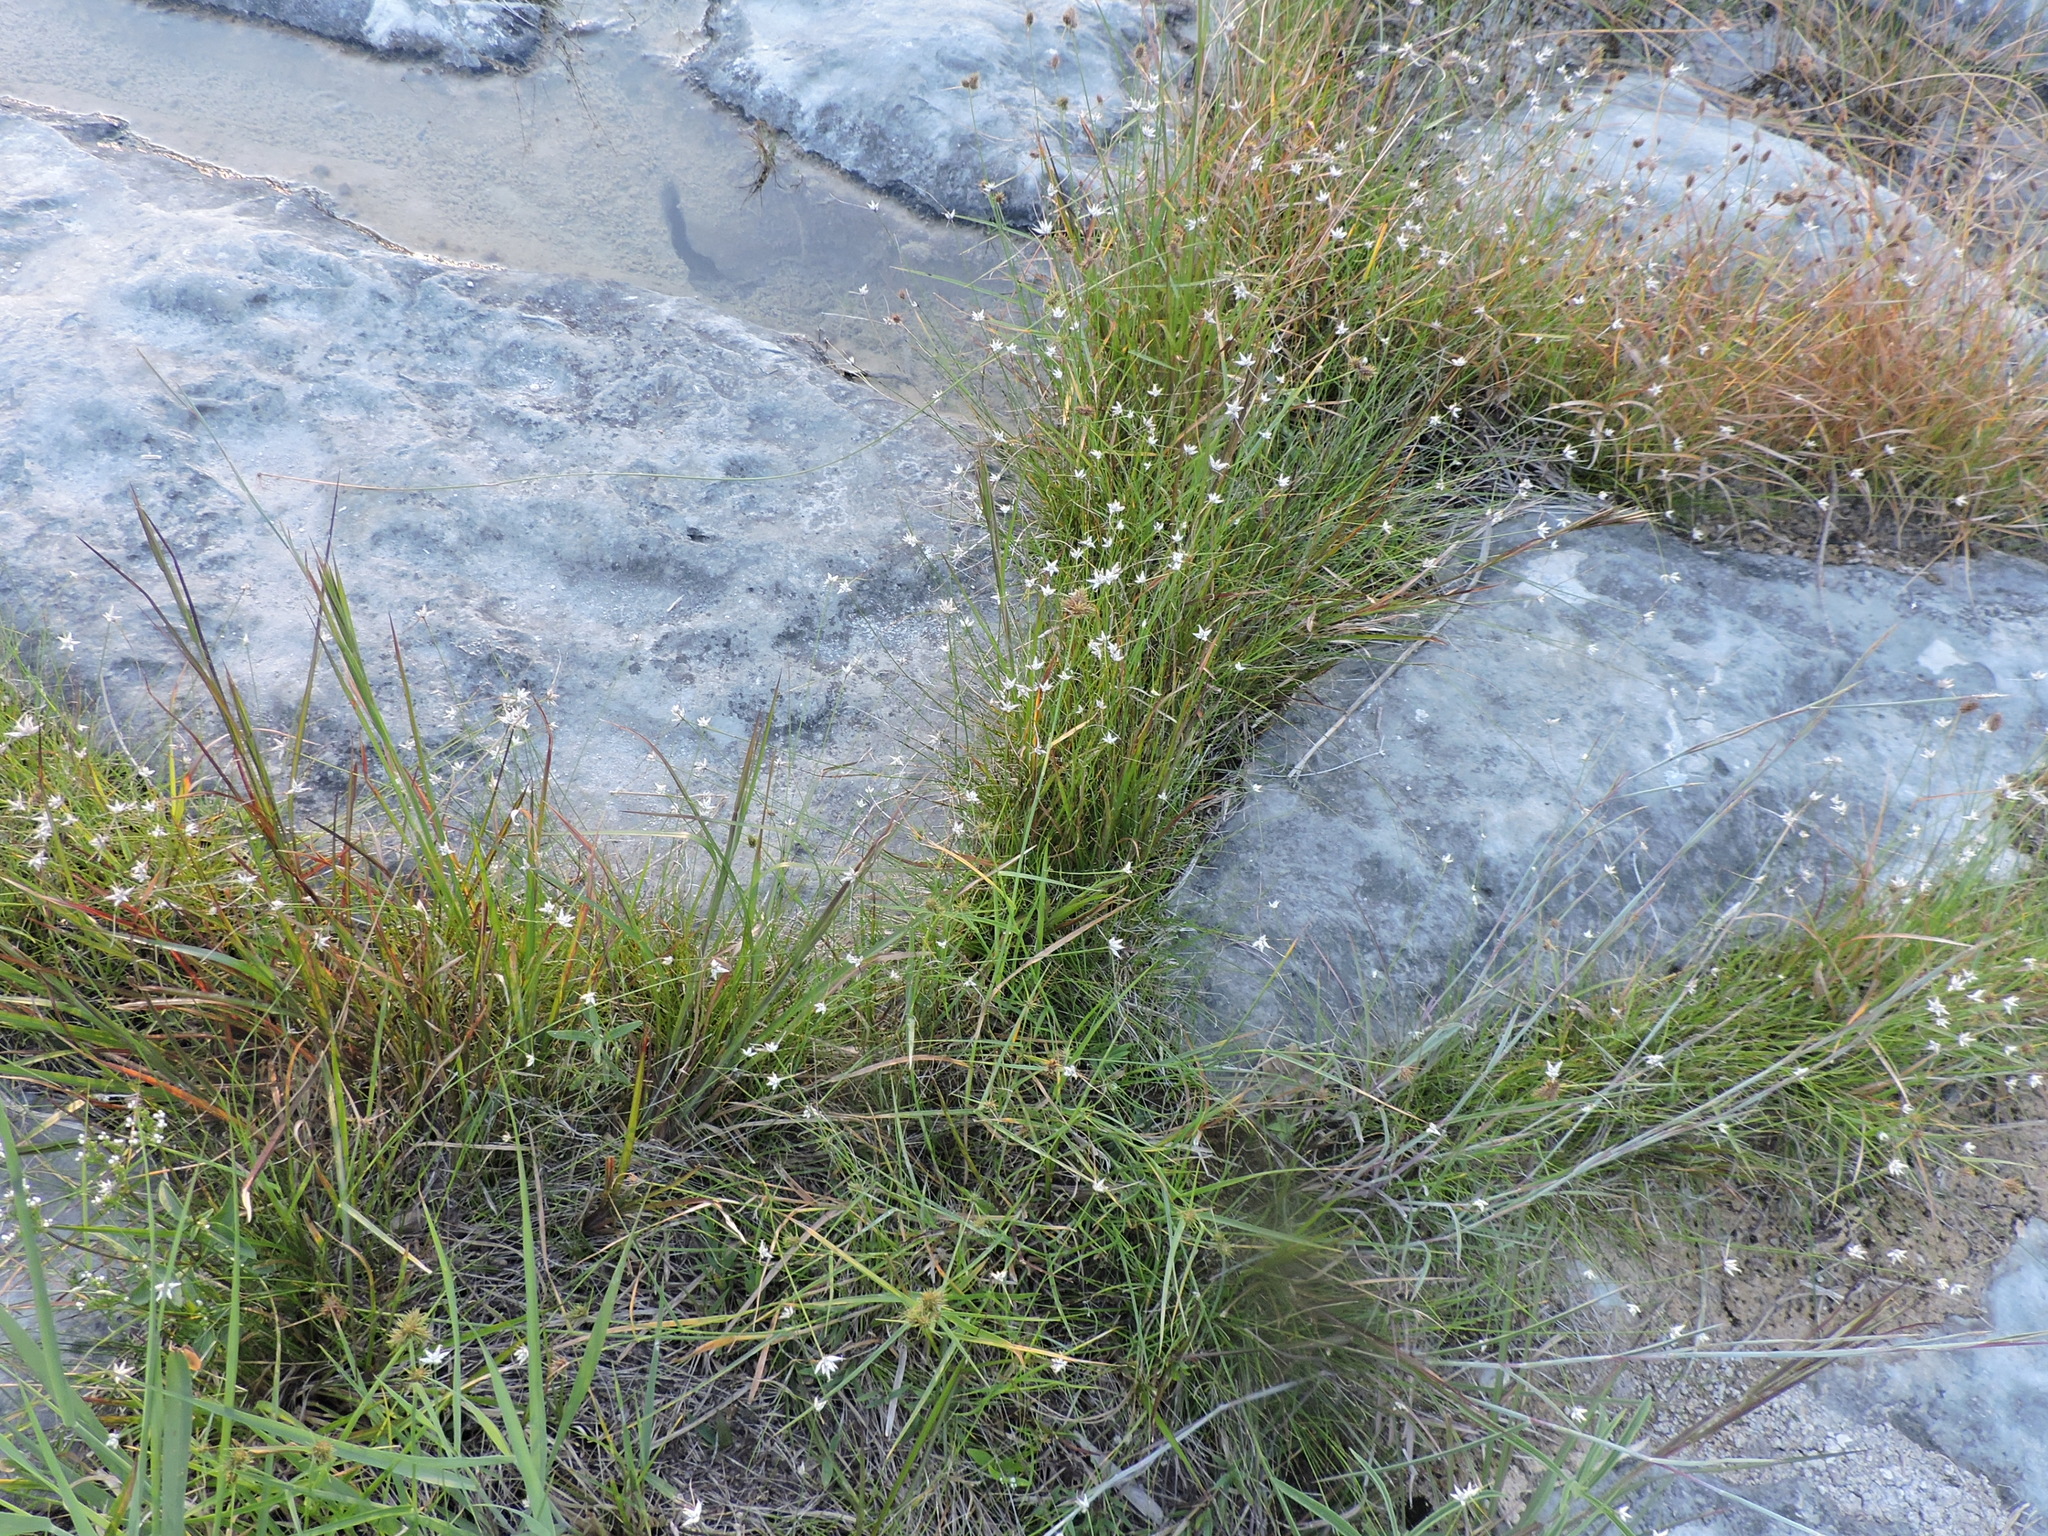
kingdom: Plantae
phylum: Tracheophyta
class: Liliopsida
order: Poales
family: Cyperaceae
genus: Rhynchospora
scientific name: Rhynchospora nivea
